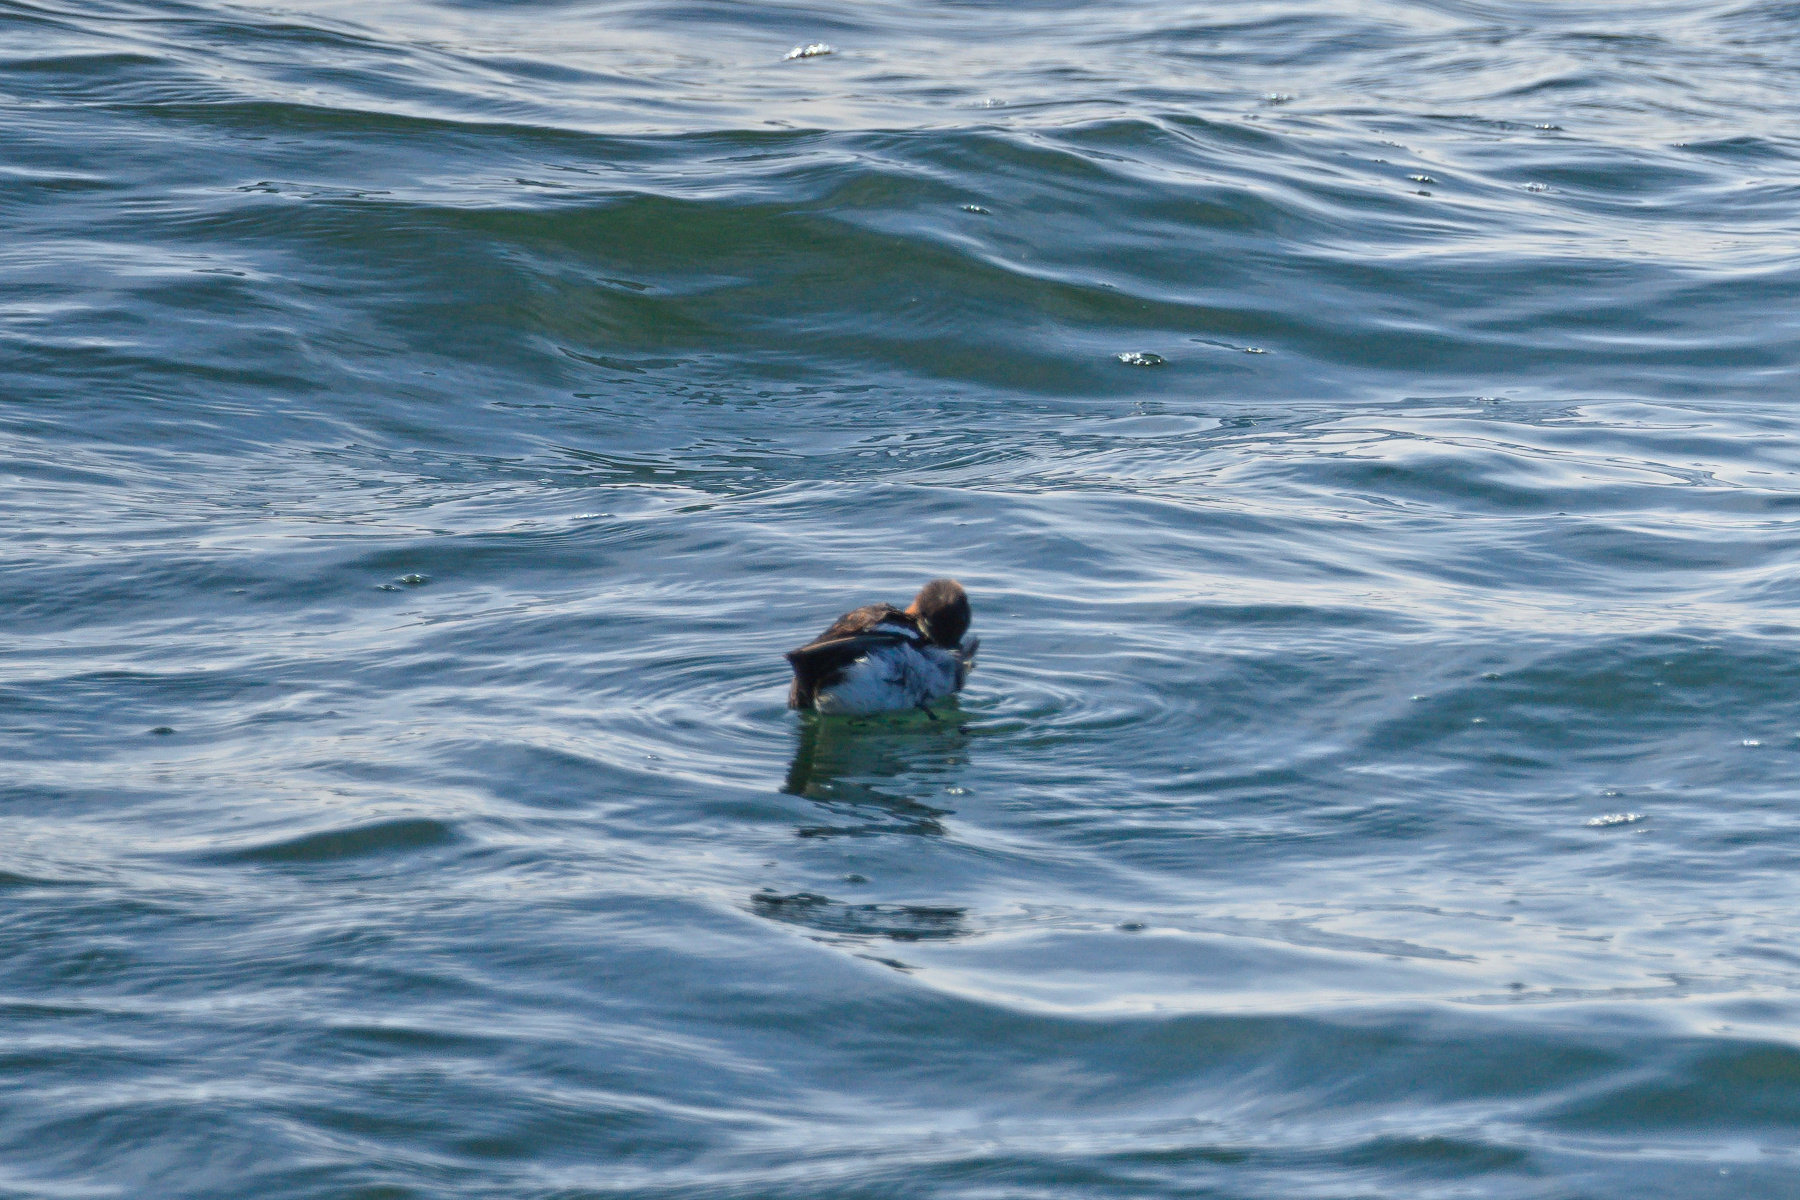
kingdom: Animalia
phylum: Chordata
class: Aves
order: Charadriiformes
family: Scolopacidae
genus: Phalaropus
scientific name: Phalaropus lobatus
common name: Red-necked phalarope
